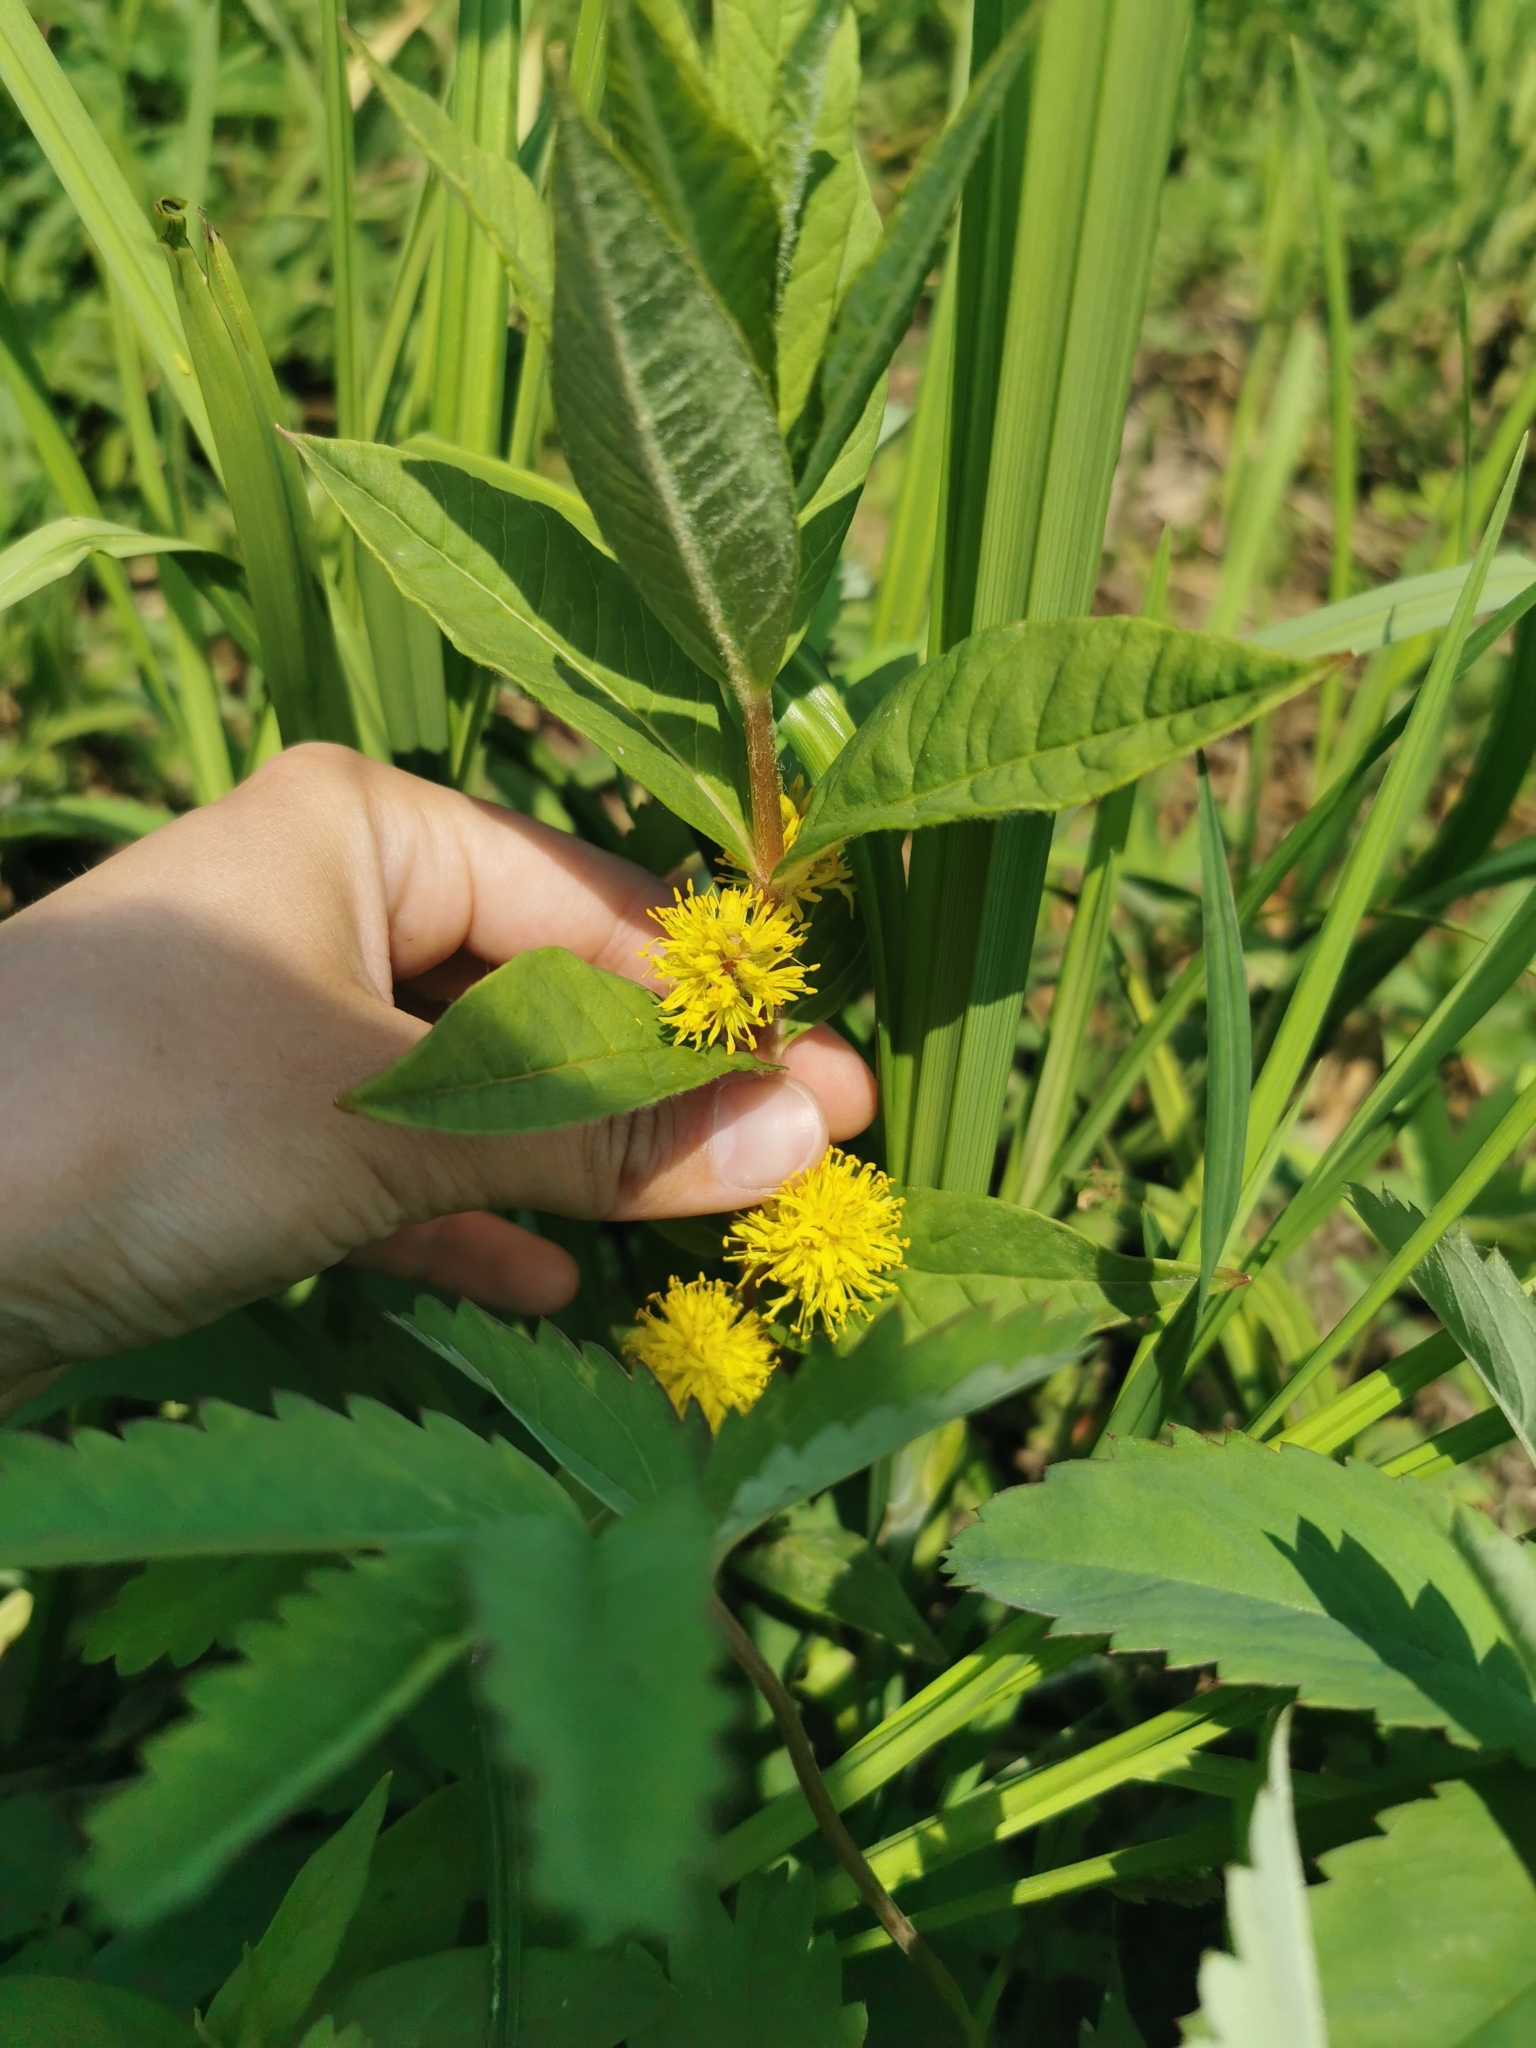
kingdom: Plantae
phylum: Tracheophyta
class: Magnoliopsida
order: Ericales
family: Primulaceae
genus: Lysimachia
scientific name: Lysimachia thyrsiflora
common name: Tufted loosestrife
